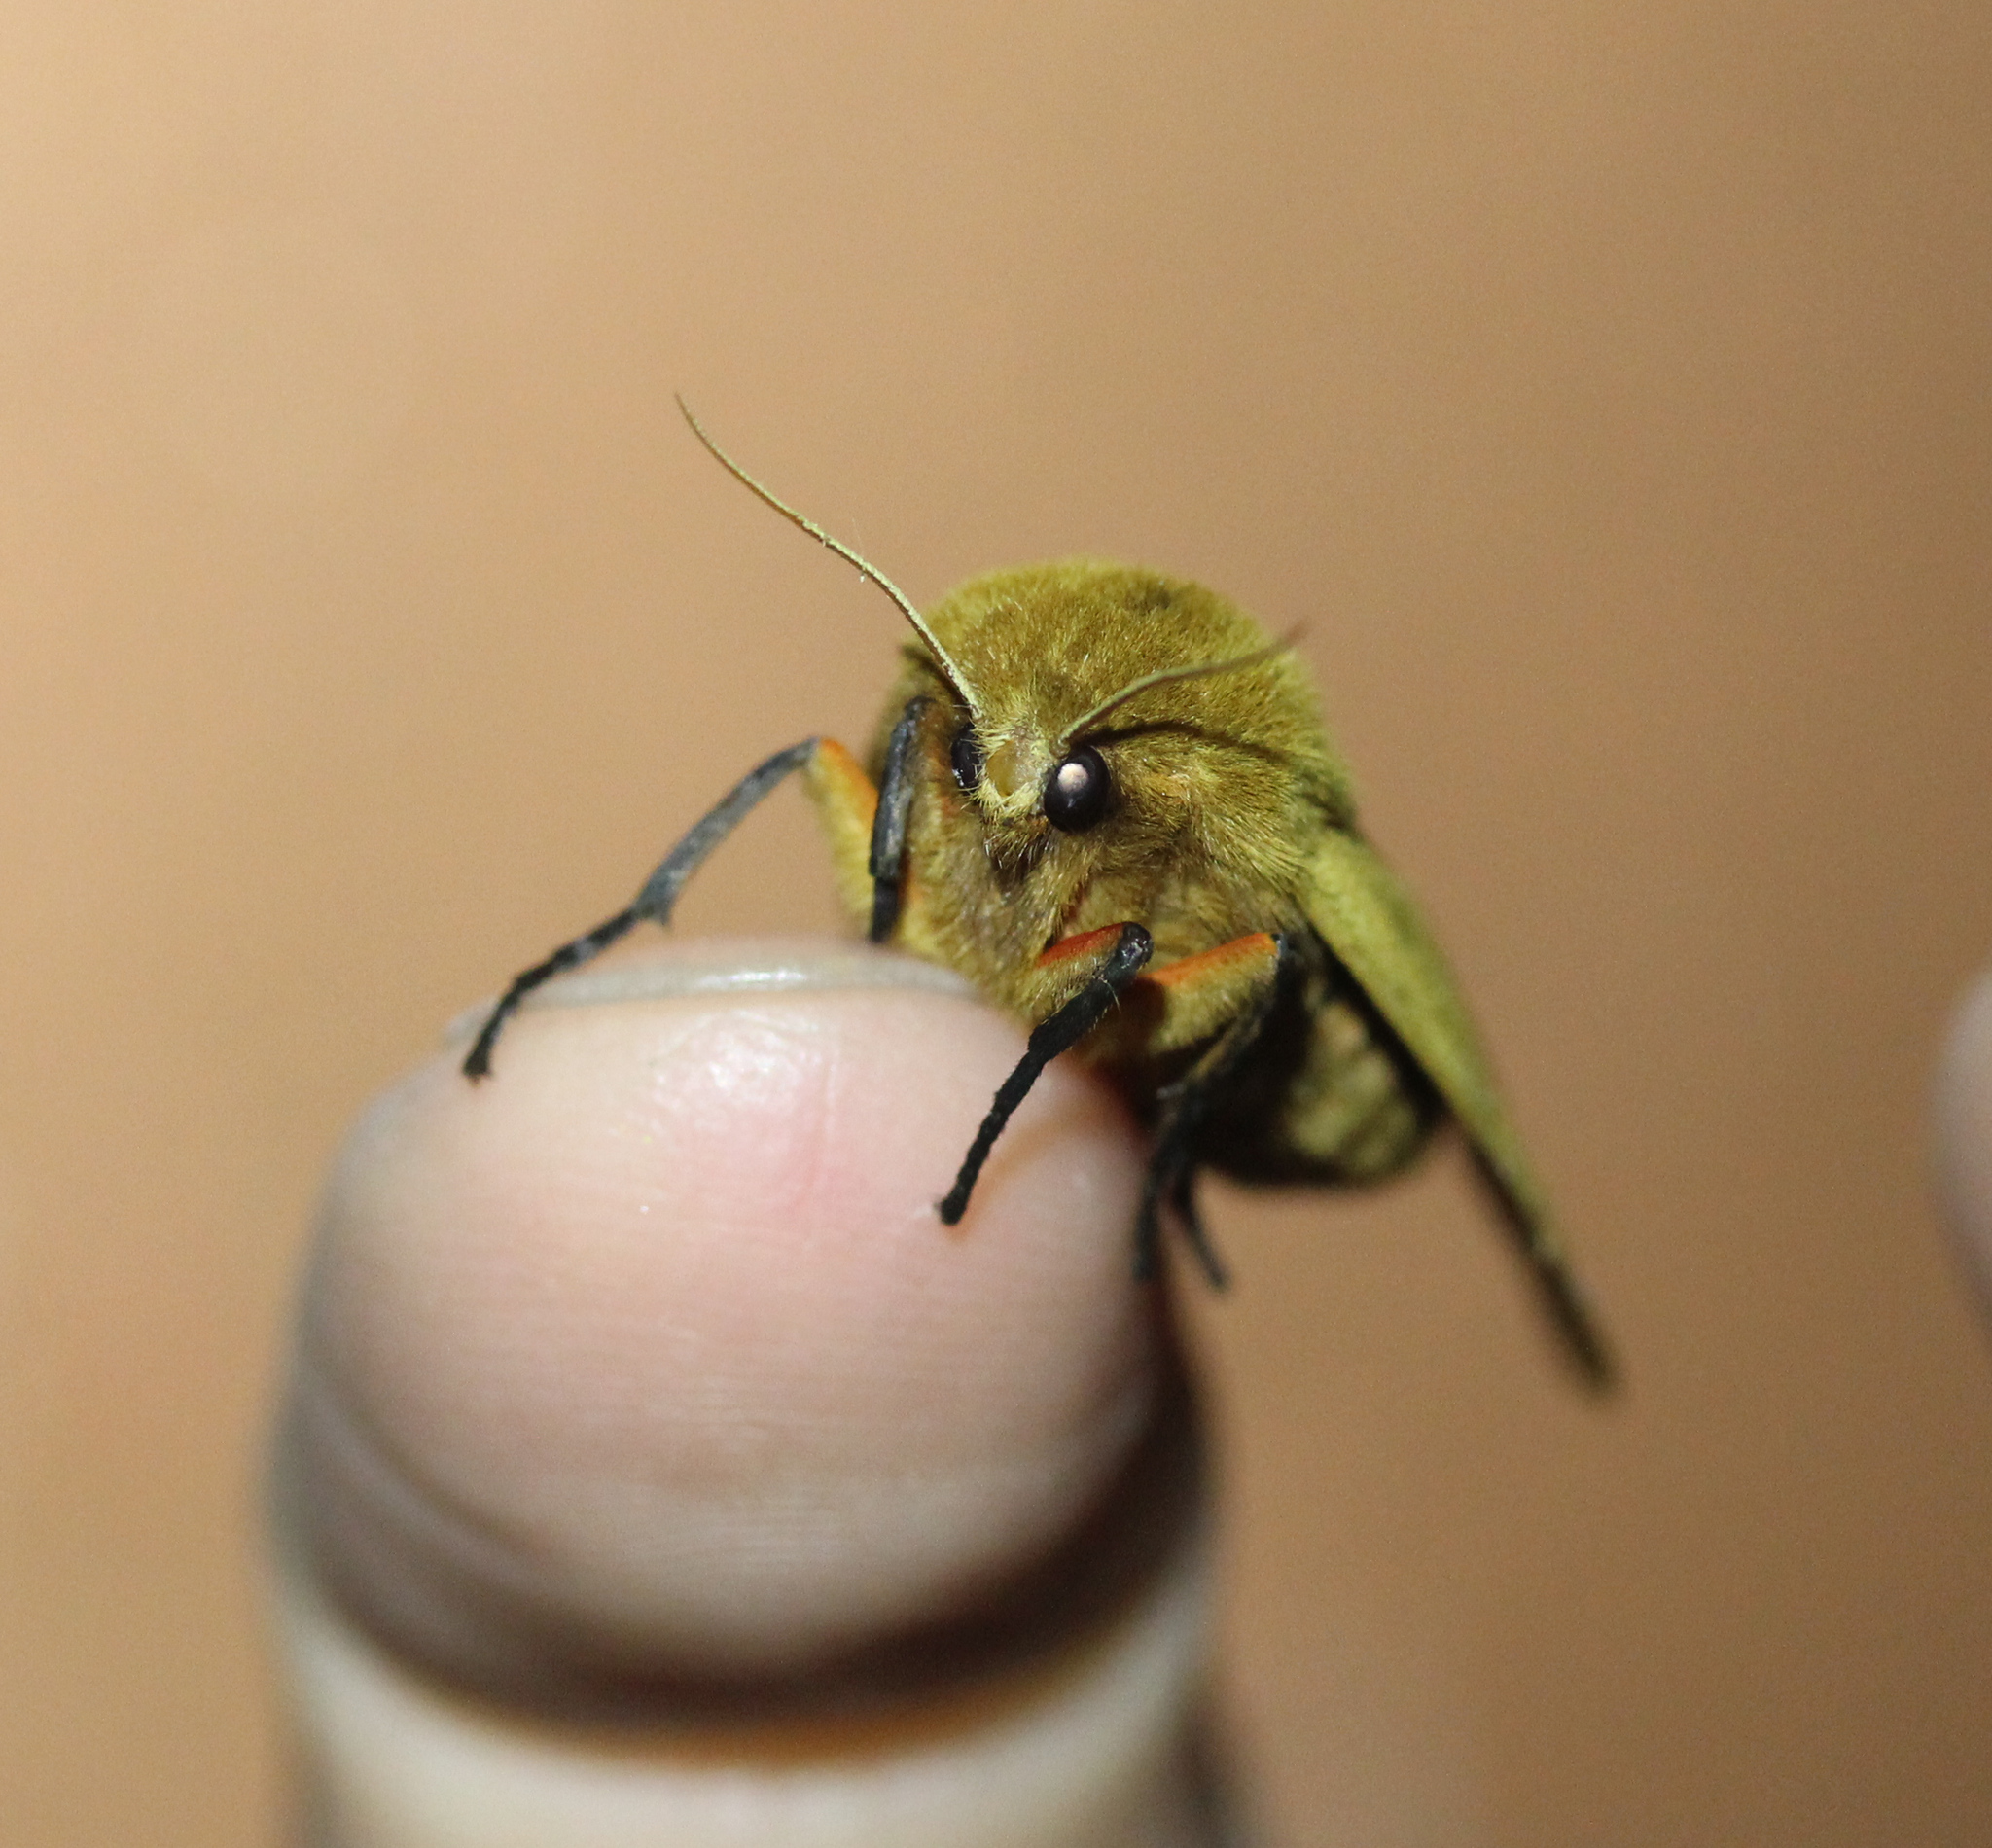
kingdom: Animalia
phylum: Arthropoda
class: Insecta
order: Lepidoptera
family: Erebidae
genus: Pyrrharctia
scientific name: Pyrrharctia isabella
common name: Isabella tiger moth
